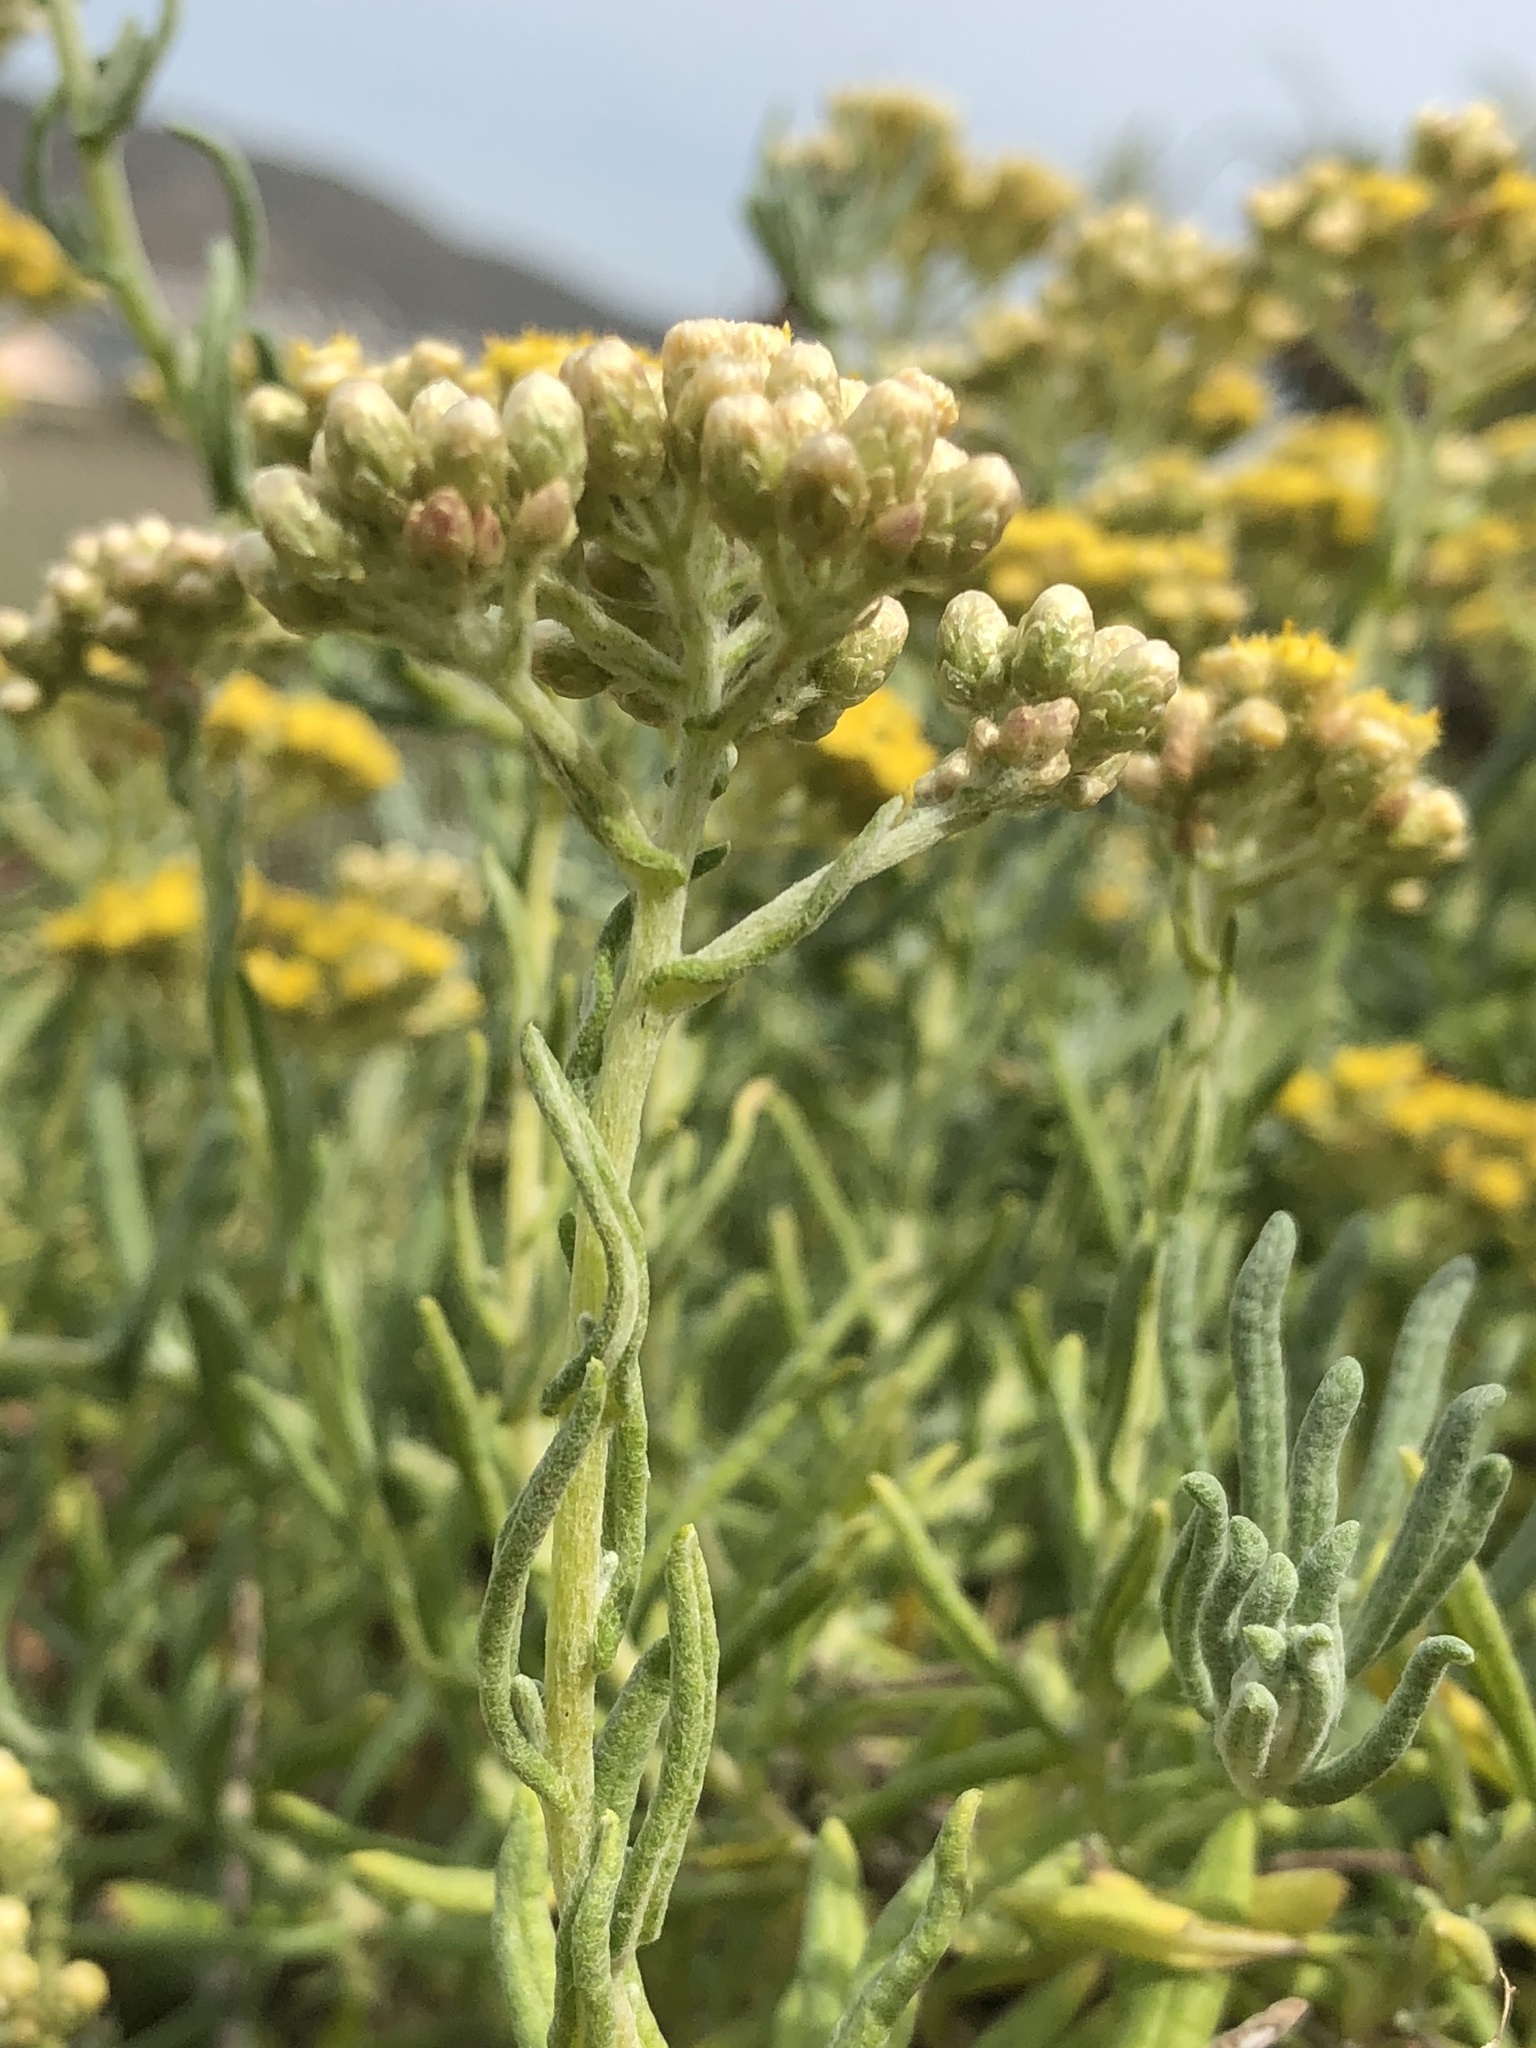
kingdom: Plantae
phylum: Tracheophyta
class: Magnoliopsida
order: Asterales
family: Asteraceae
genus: Helichrysum
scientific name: Helichrysum revolutum
